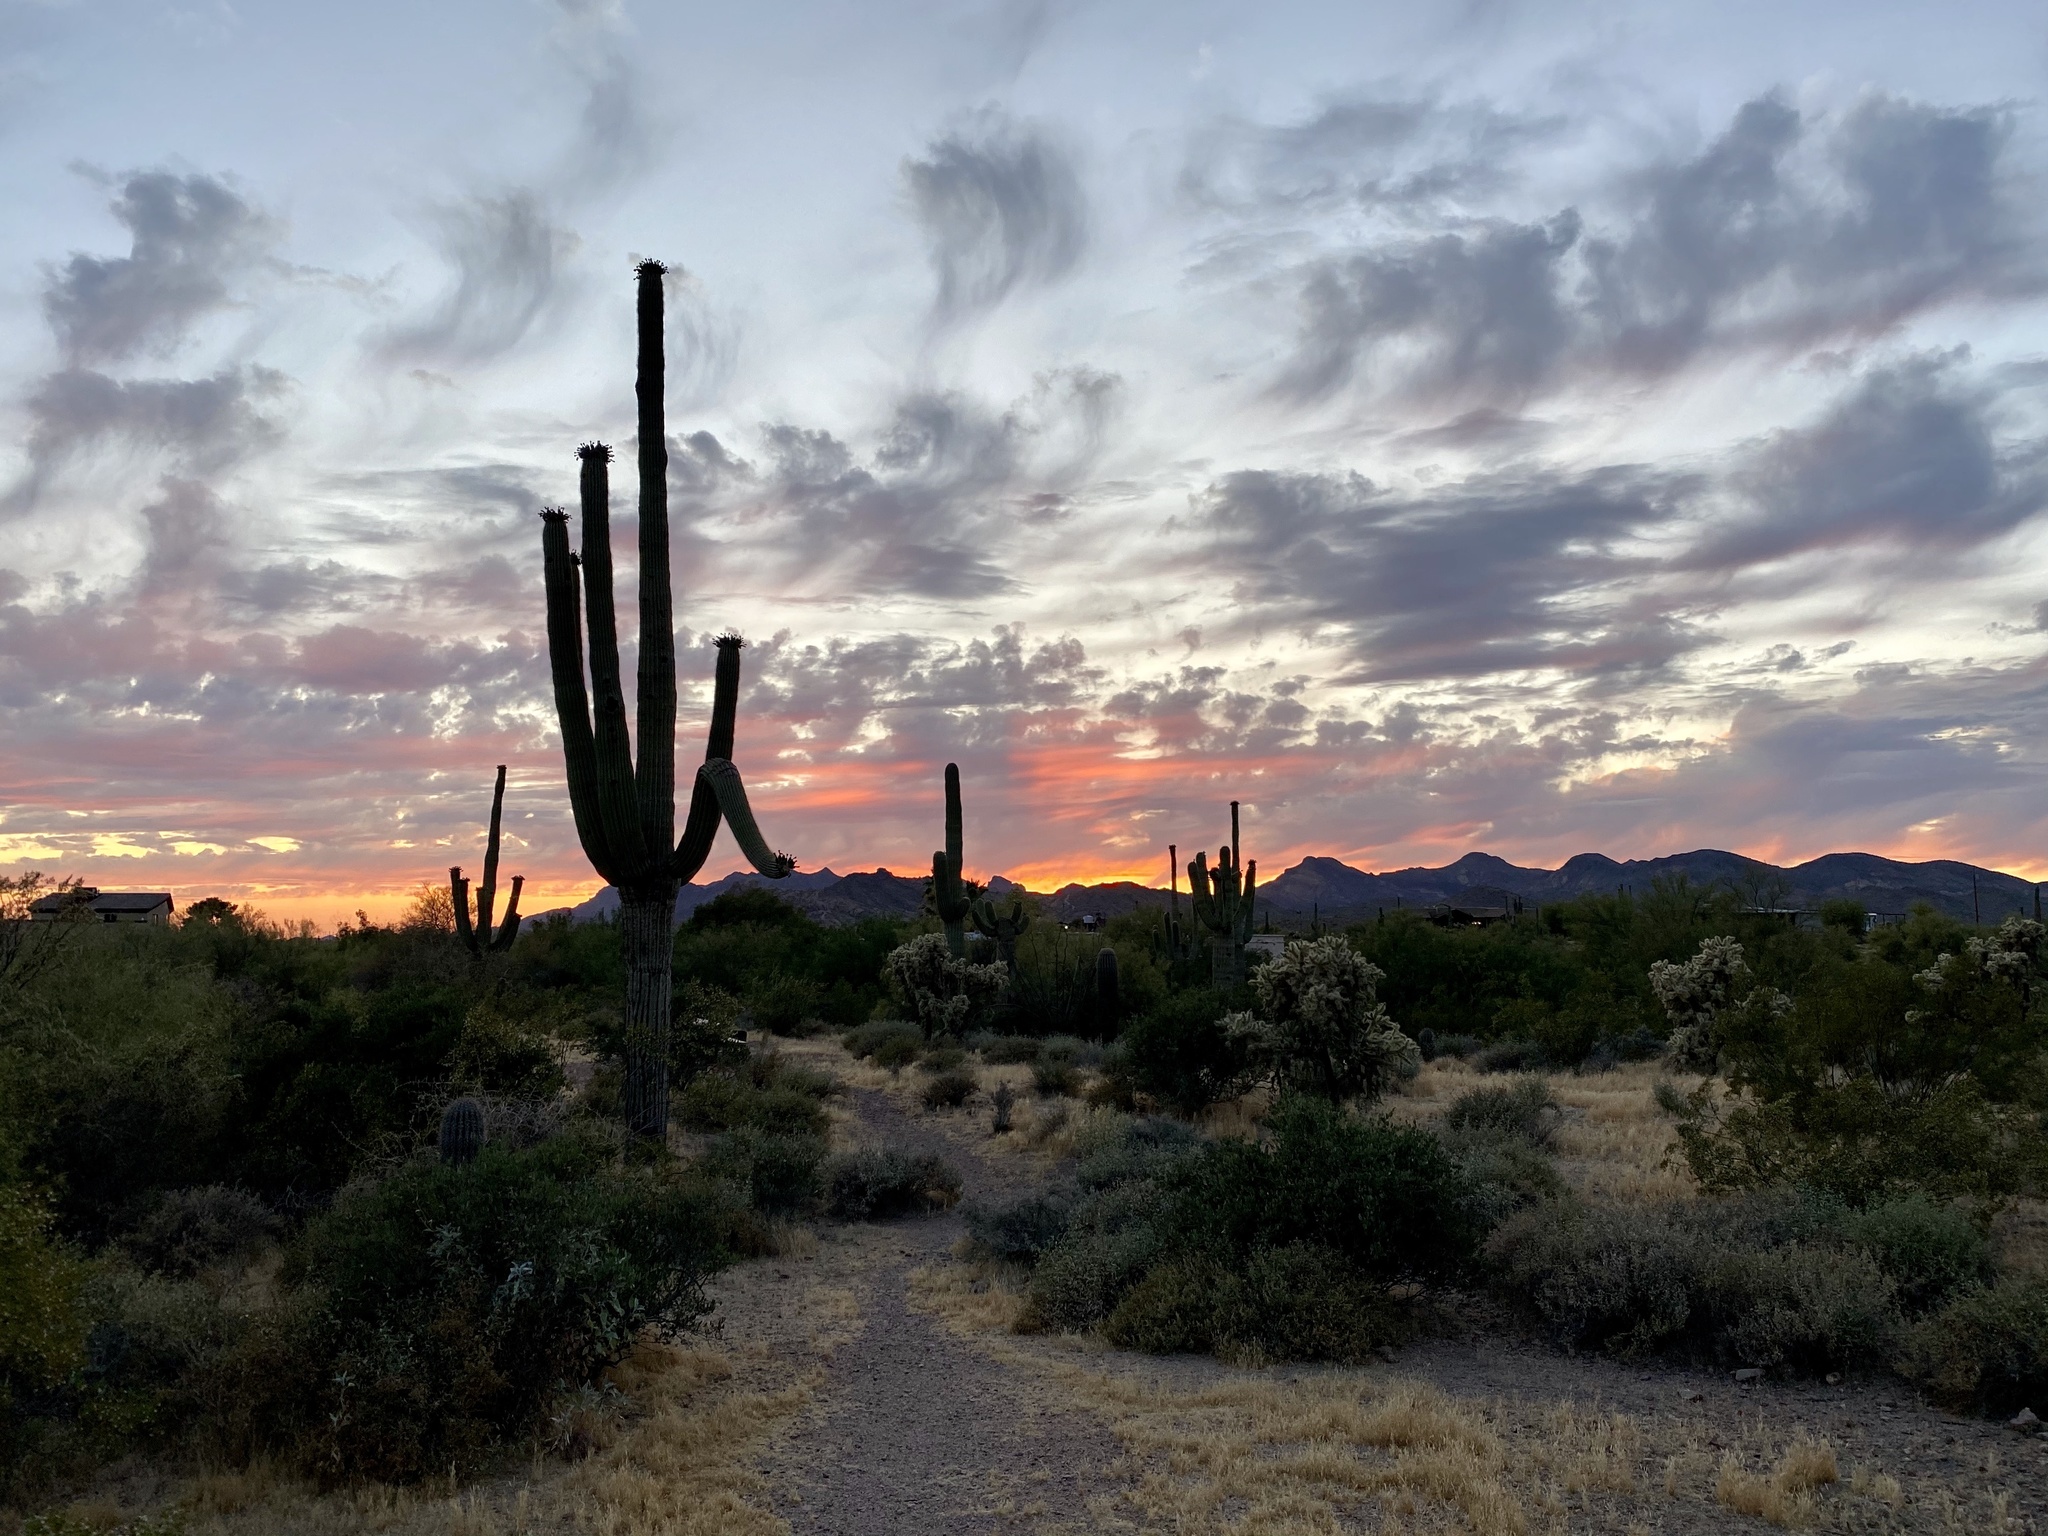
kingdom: Plantae
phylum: Tracheophyta
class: Magnoliopsida
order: Caryophyllales
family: Cactaceae
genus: Carnegiea
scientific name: Carnegiea gigantea
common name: Saguaro
